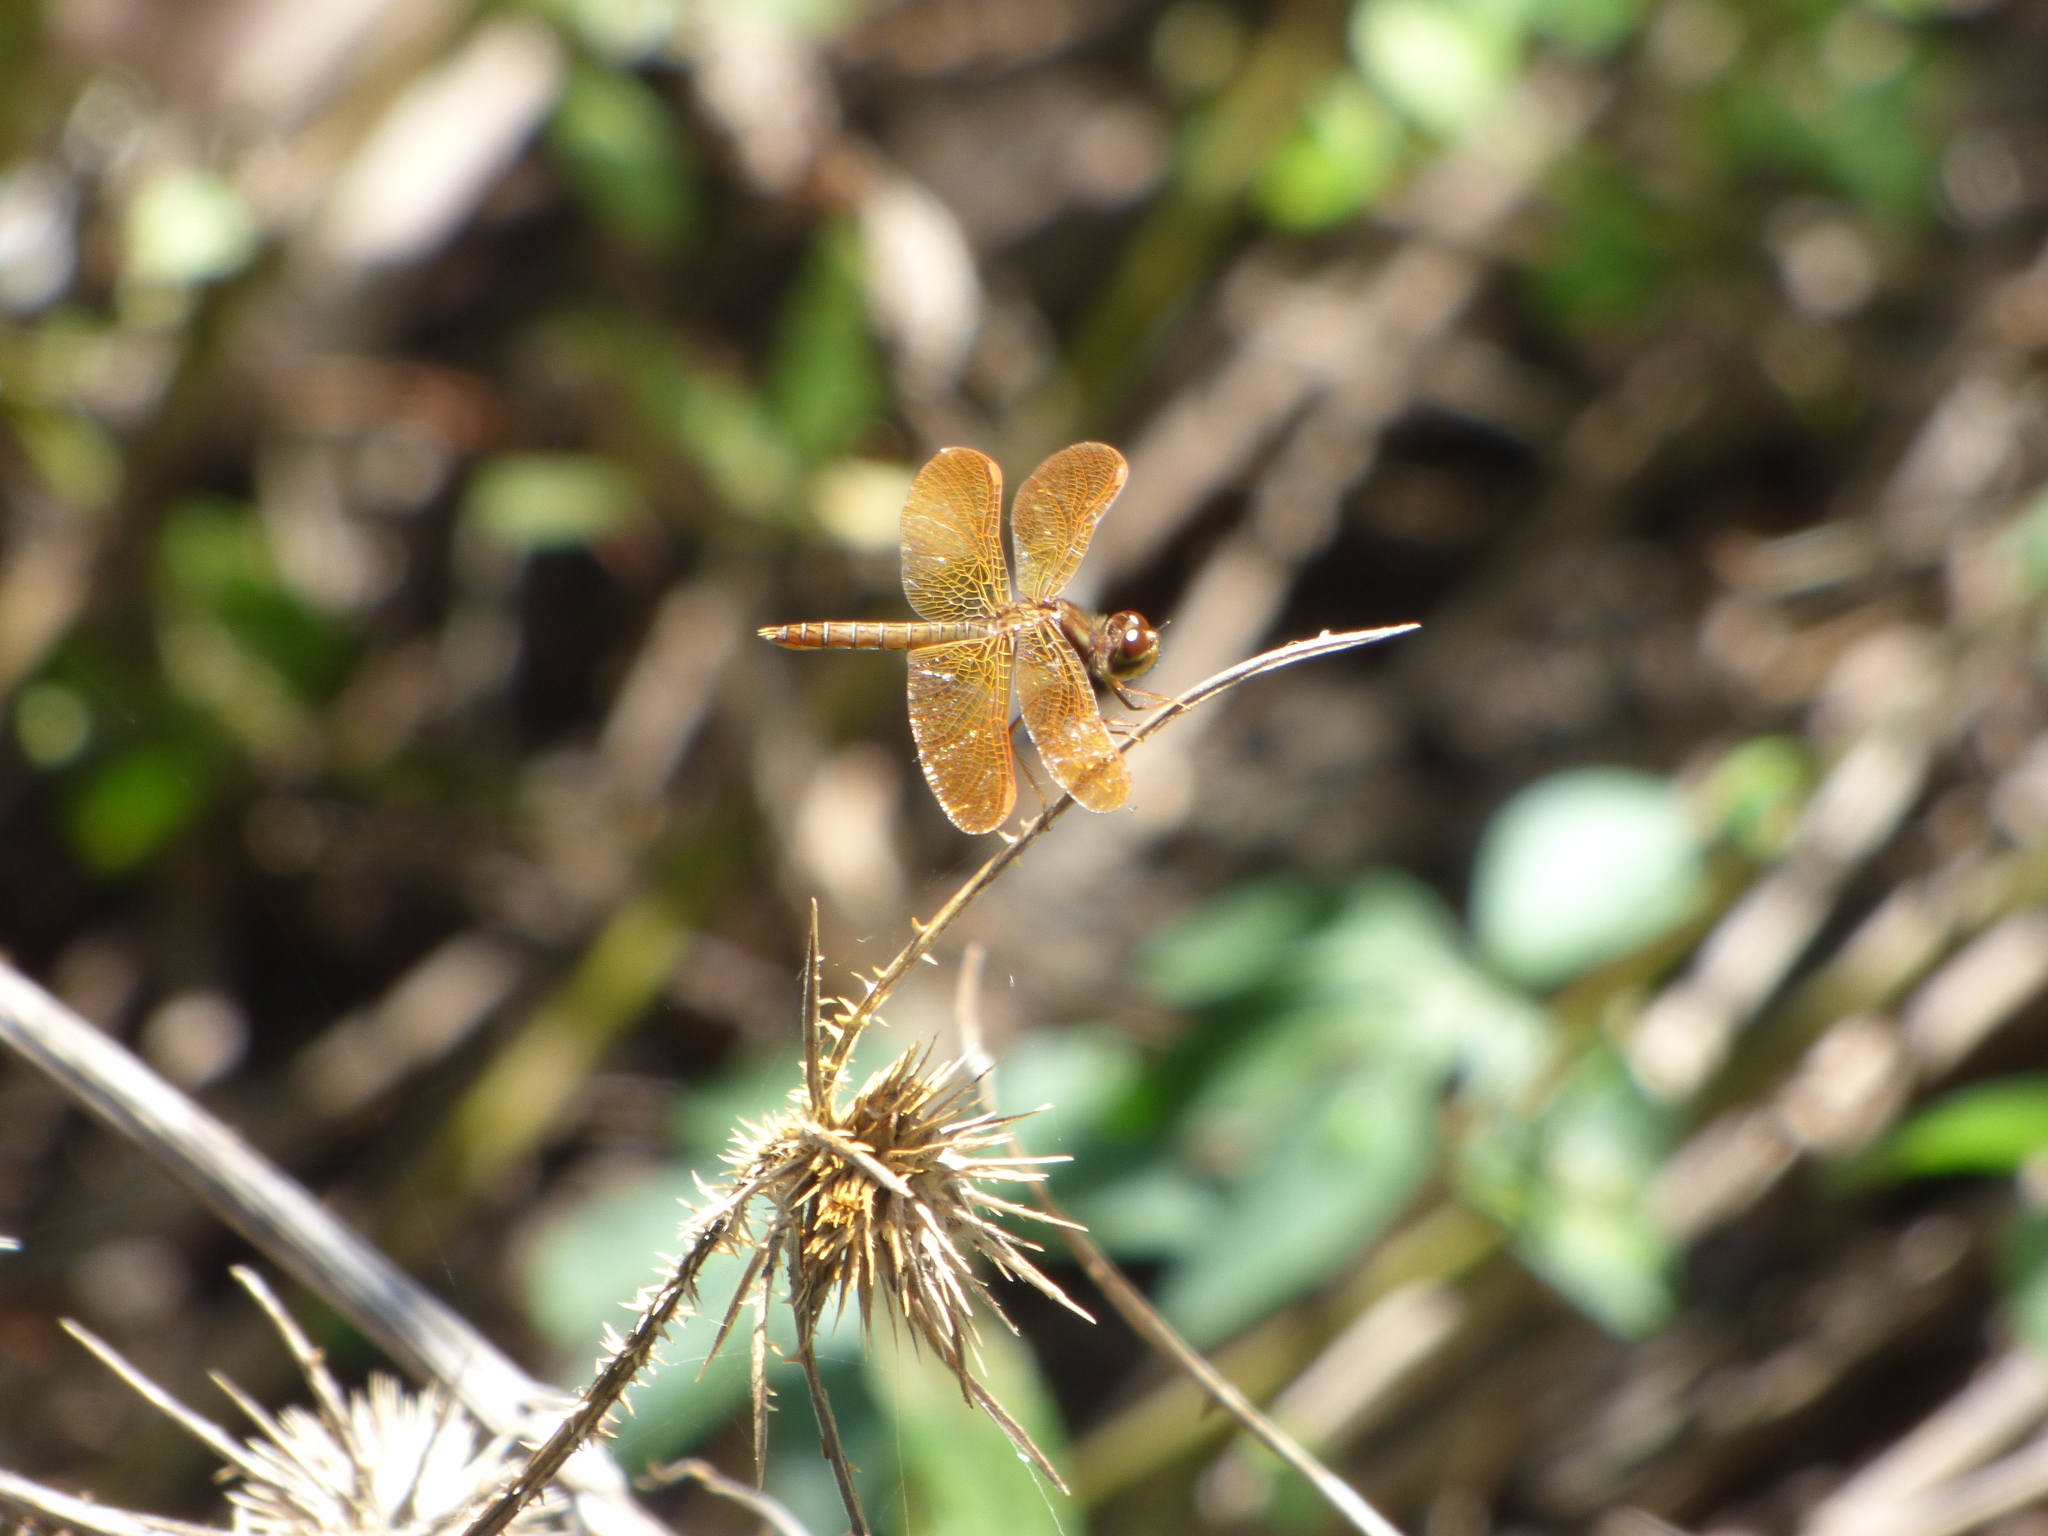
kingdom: Animalia
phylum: Arthropoda
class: Insecta
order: Odonata
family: Libellulidae
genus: Perithemis
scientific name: Perithemis tenera
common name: Eastern amberwing
